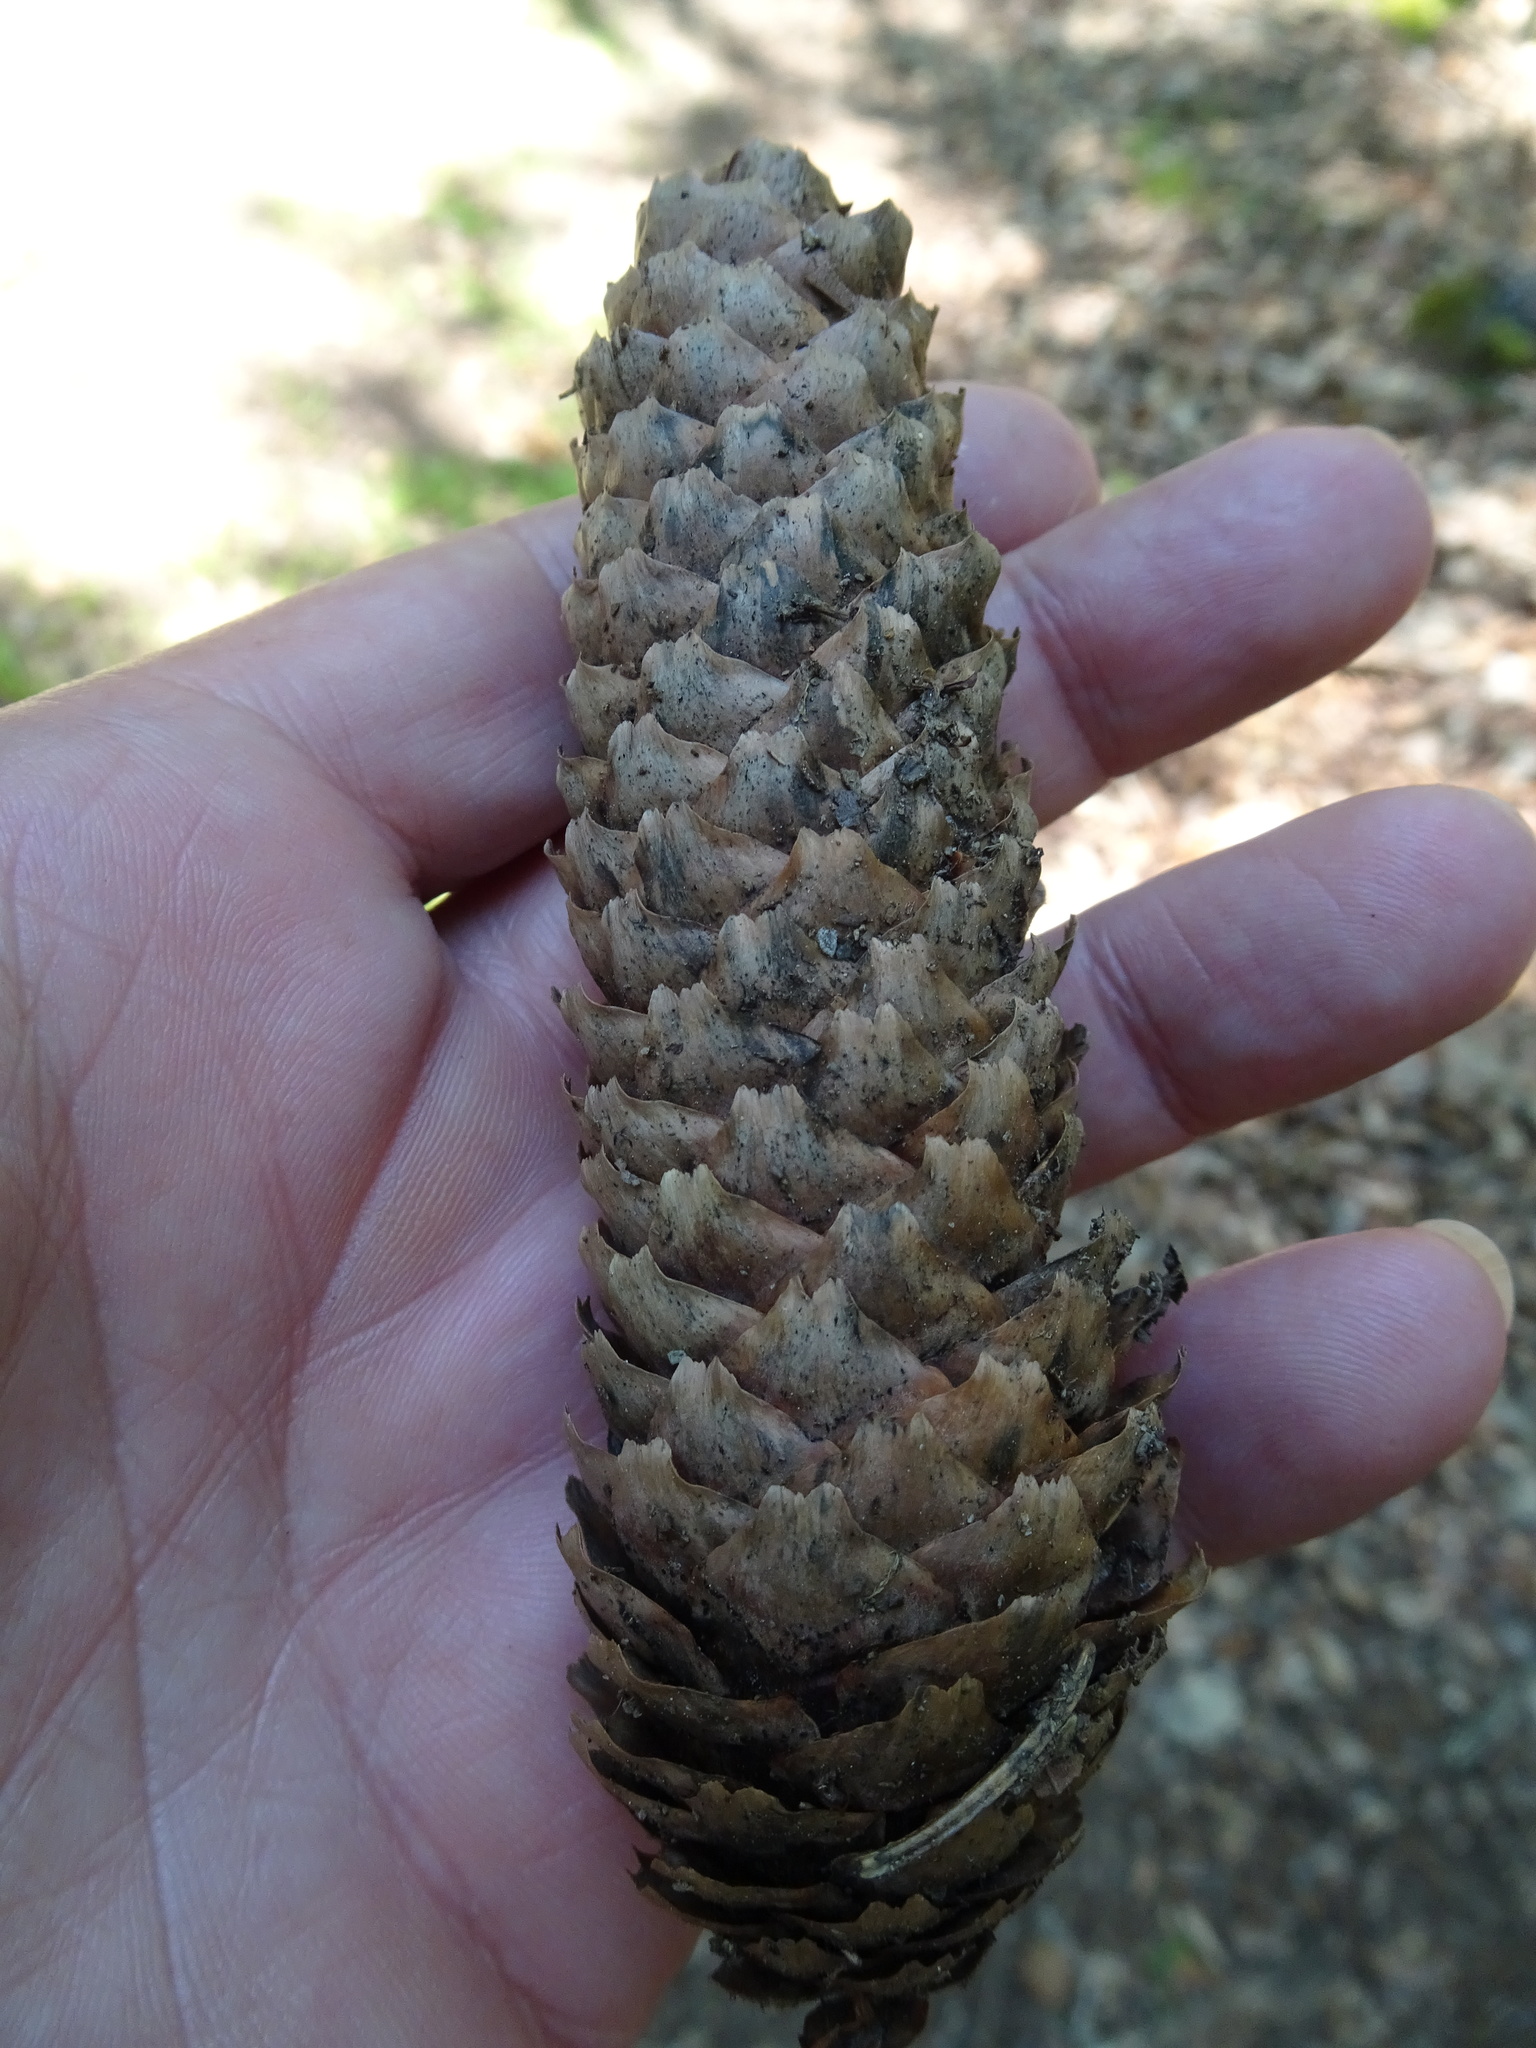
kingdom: Plantae
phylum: Tracheophyta
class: Pinopsida
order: Pinales
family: Pinaceae
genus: Picea
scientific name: Picea abies
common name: Norway spruce
